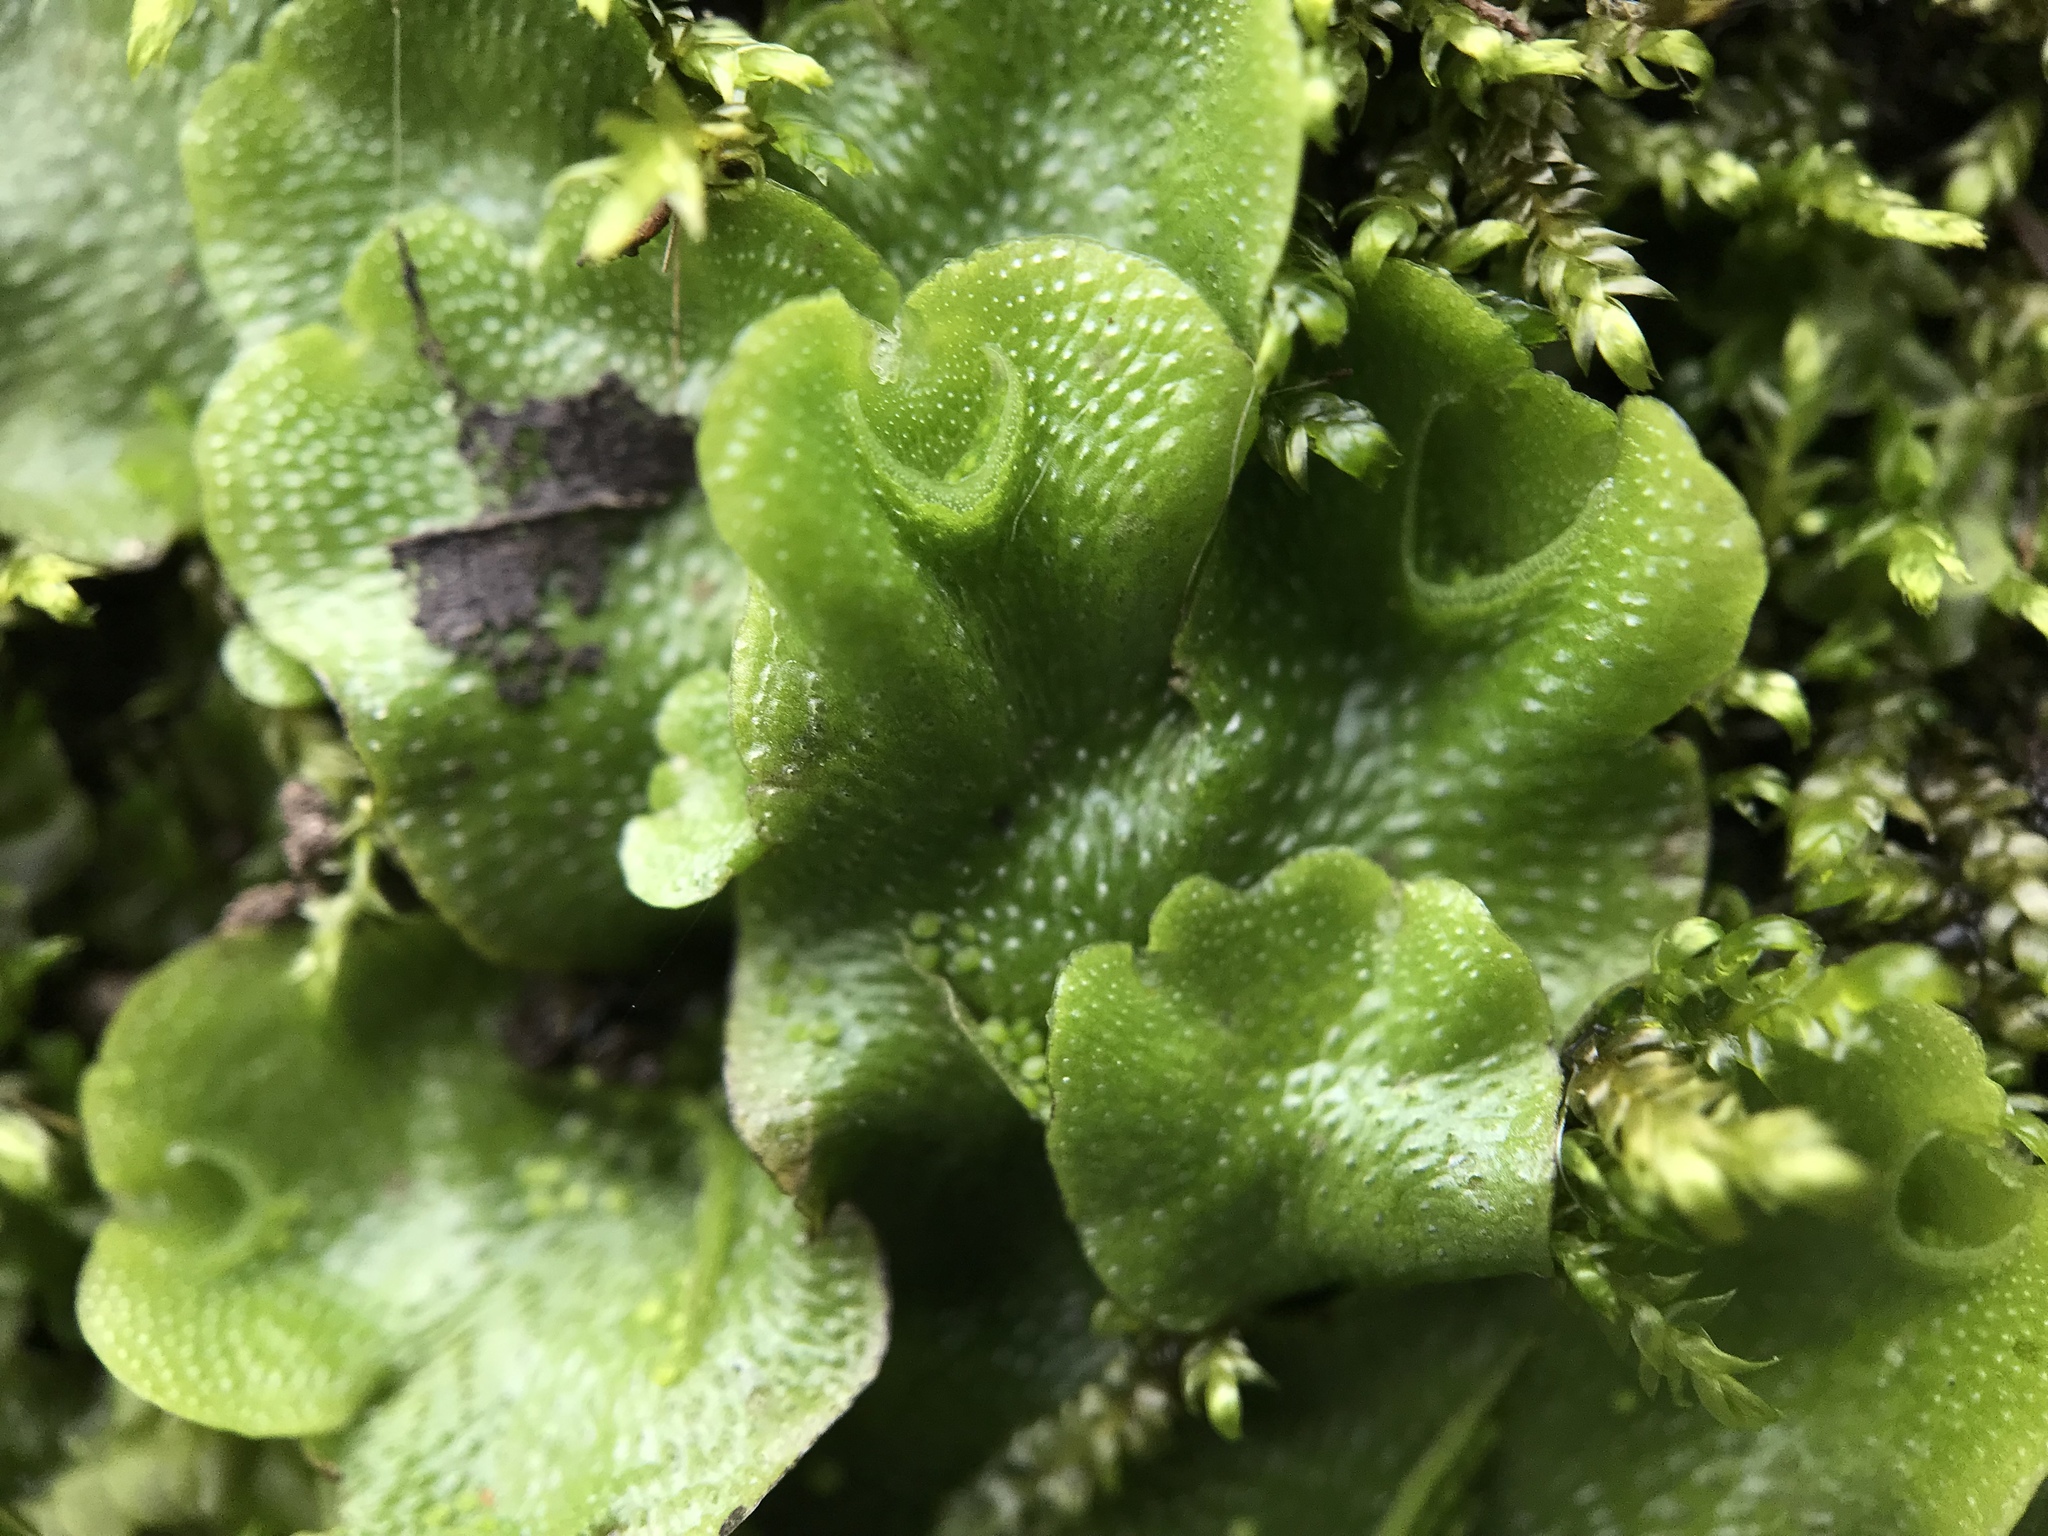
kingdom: Plantae
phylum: Marchantiophyta
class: Marchantiopsida
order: Lunulariales
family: Lunulariaceae
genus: Lunularia
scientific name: Lunularia cruciata
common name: Crescent-cup liverwort
